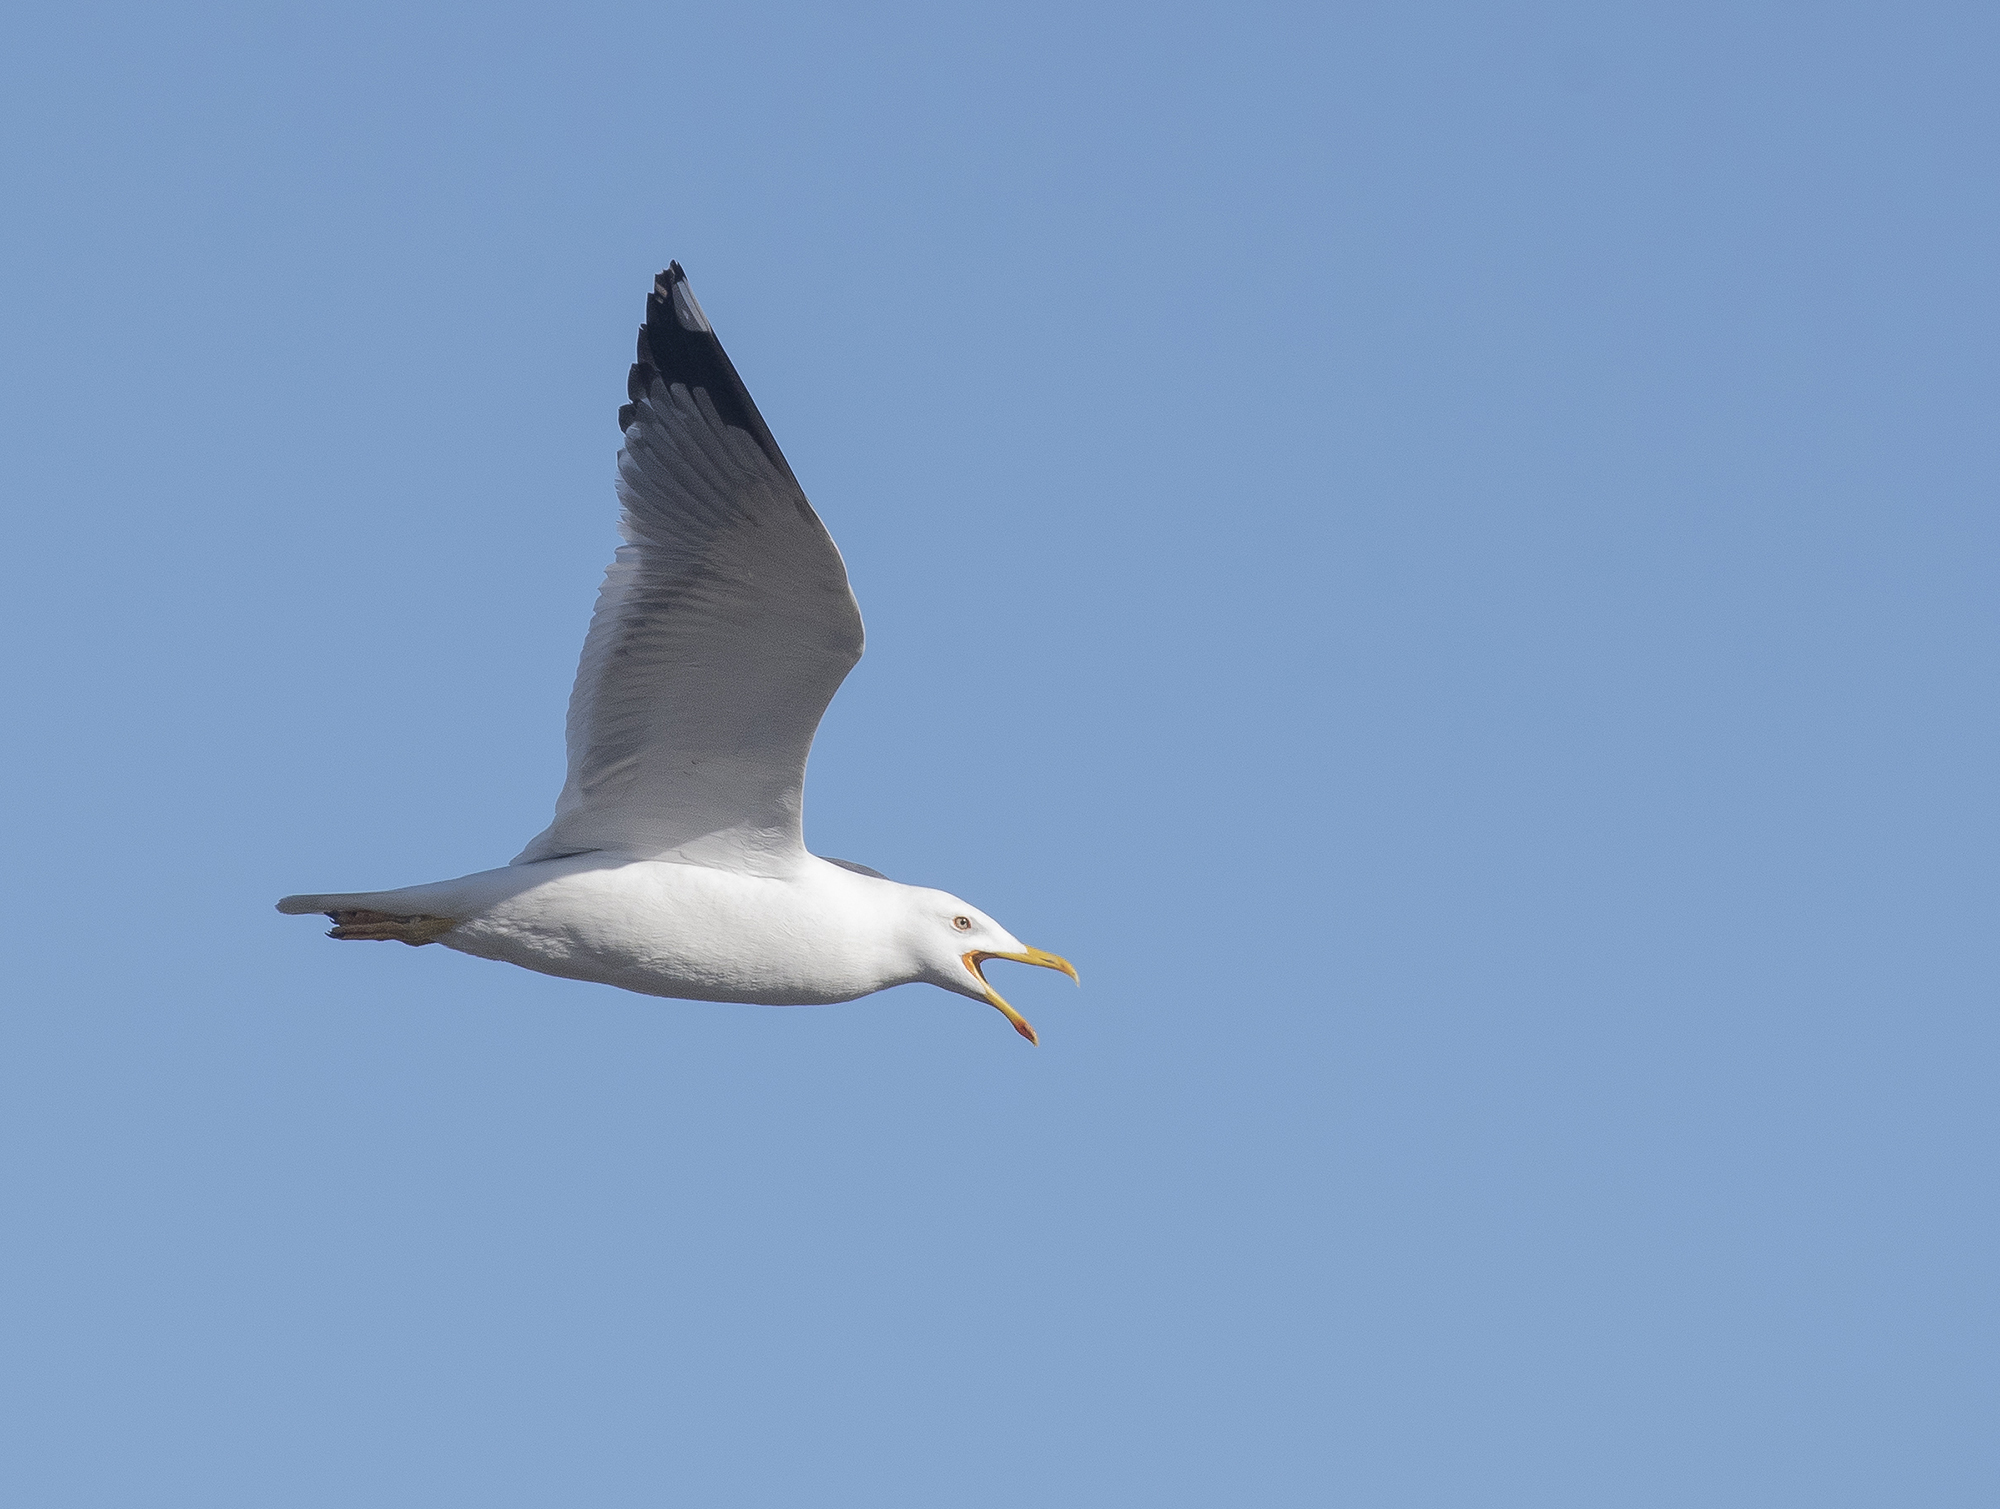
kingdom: Animalia
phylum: Chordata
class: Aves
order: Charadriiformes
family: Laridae
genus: Larus
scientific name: Larus fuscus
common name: Lesser black-backed gull
